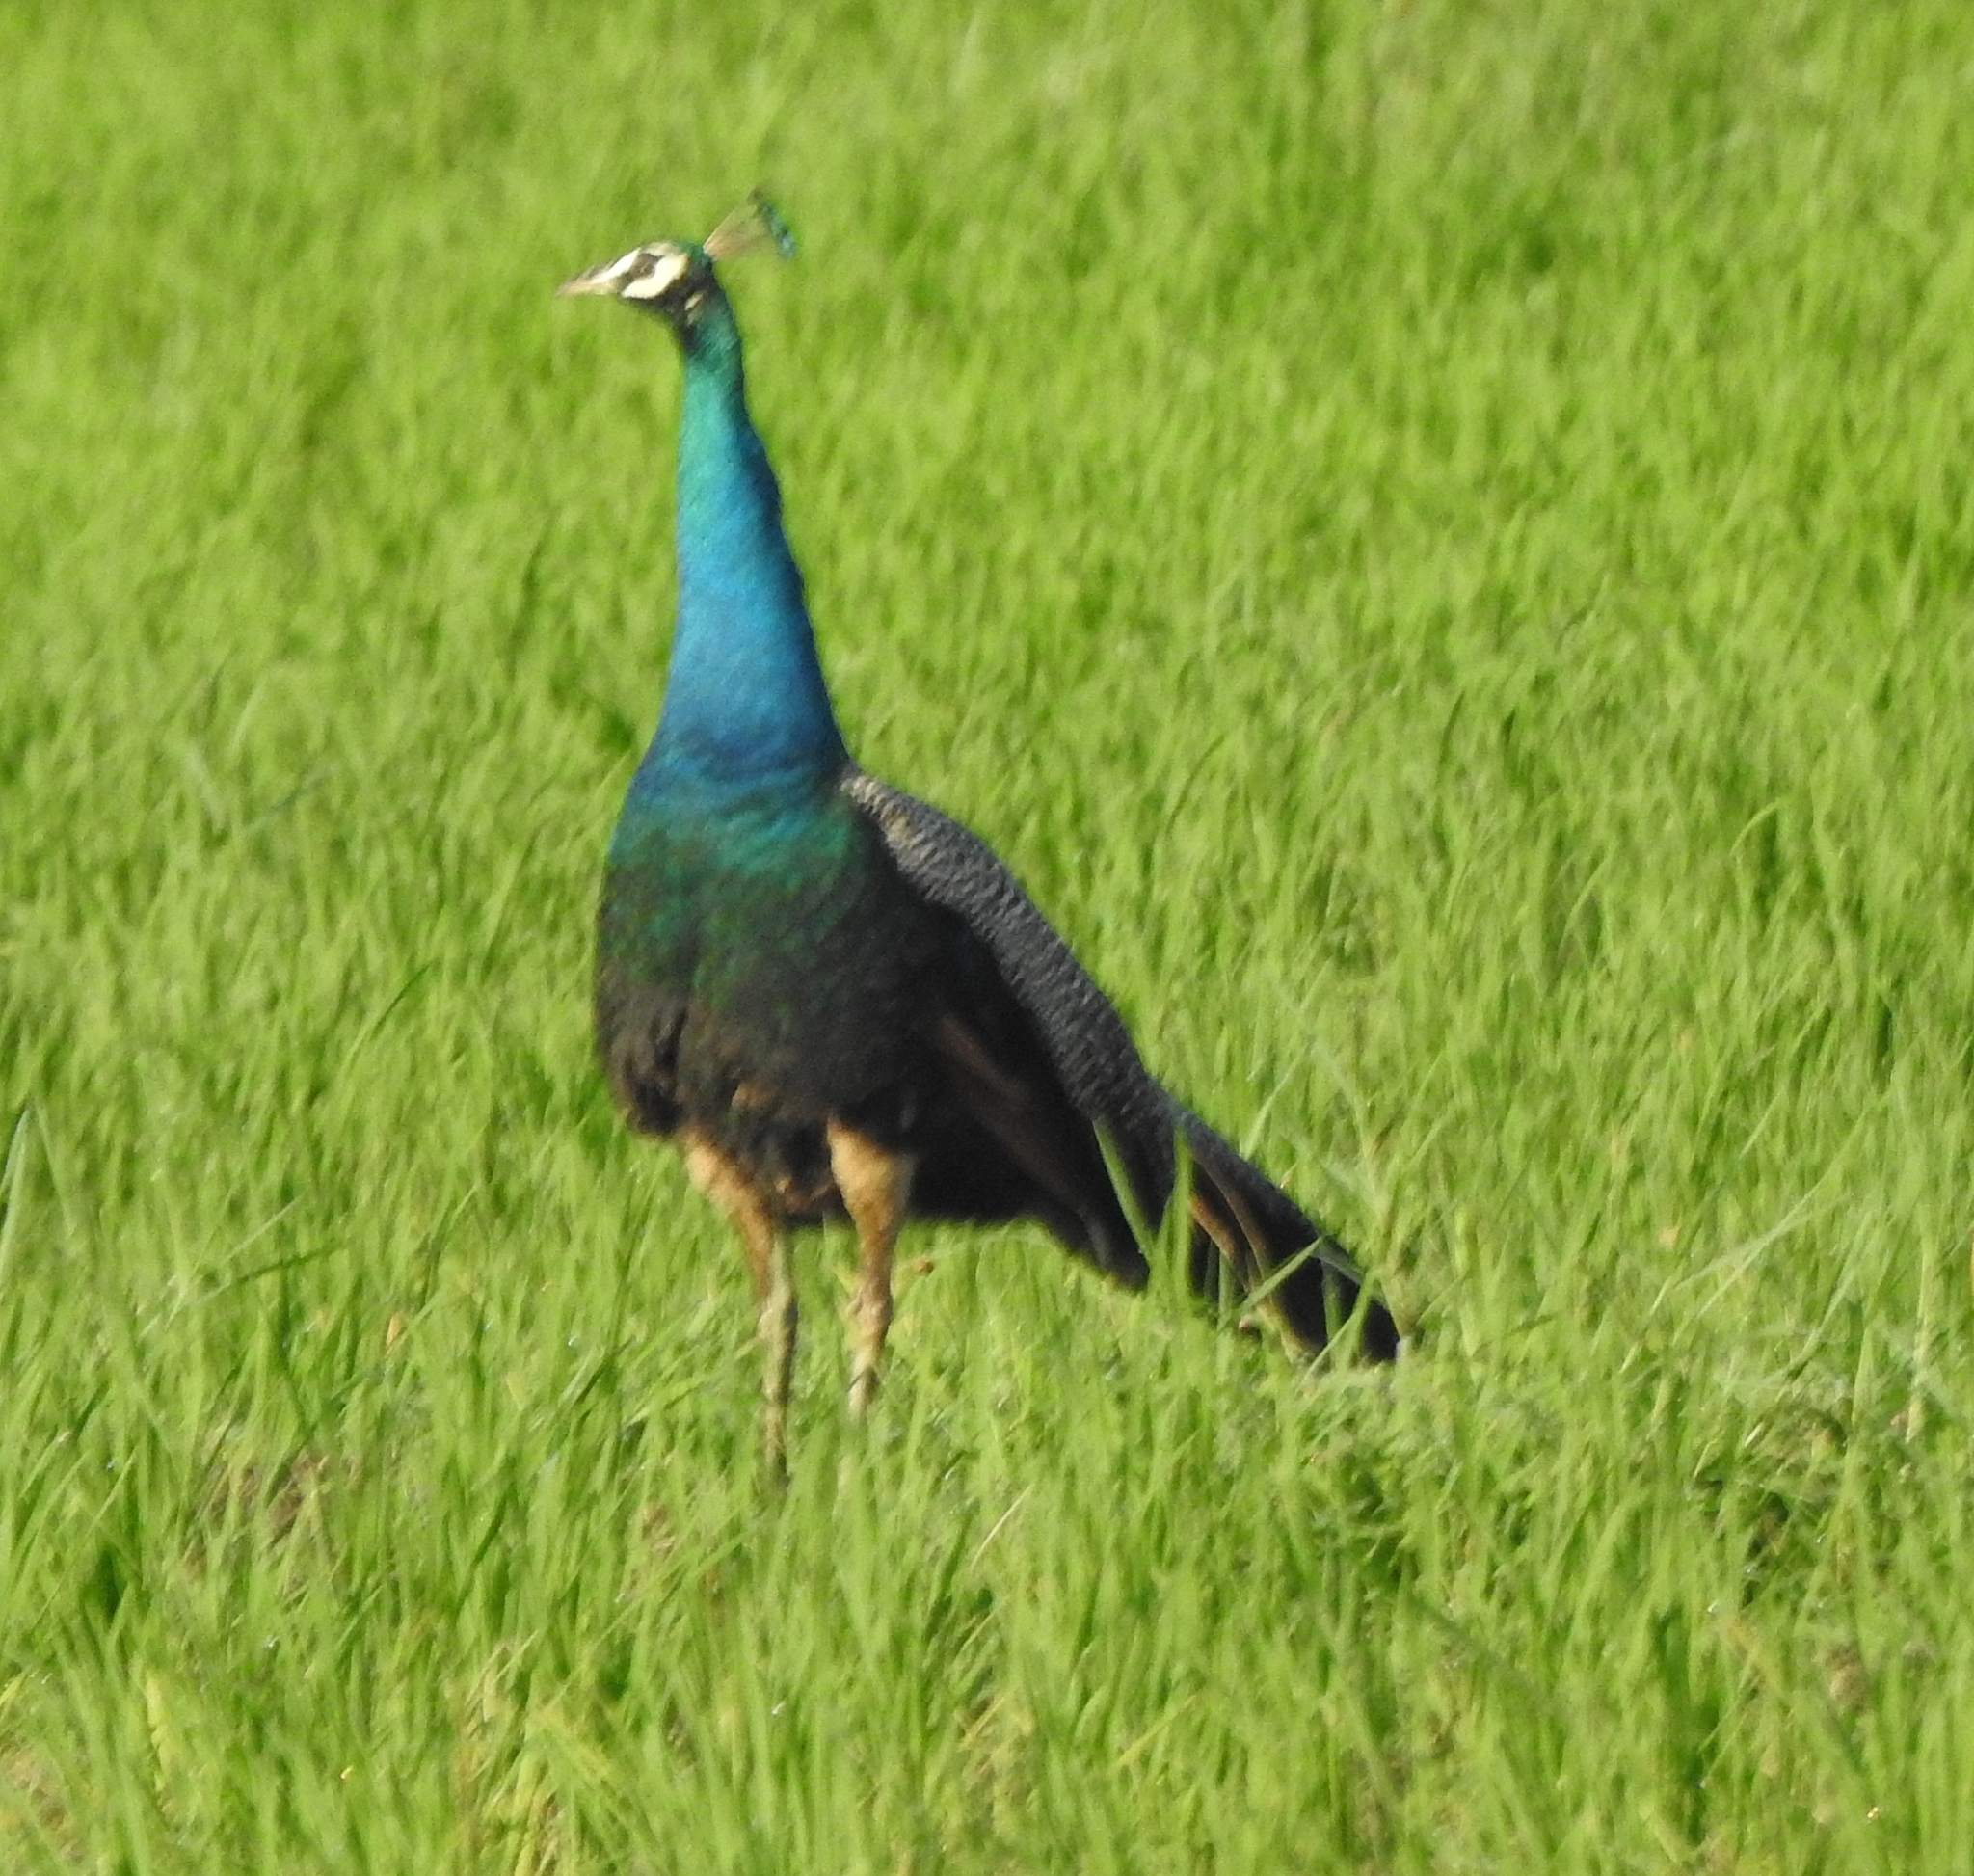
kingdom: Animalia
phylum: Chordata
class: Aves
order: Galliformes
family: Phasianidae
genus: Pavo
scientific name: Pavo cristatus
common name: Indian peafowl
